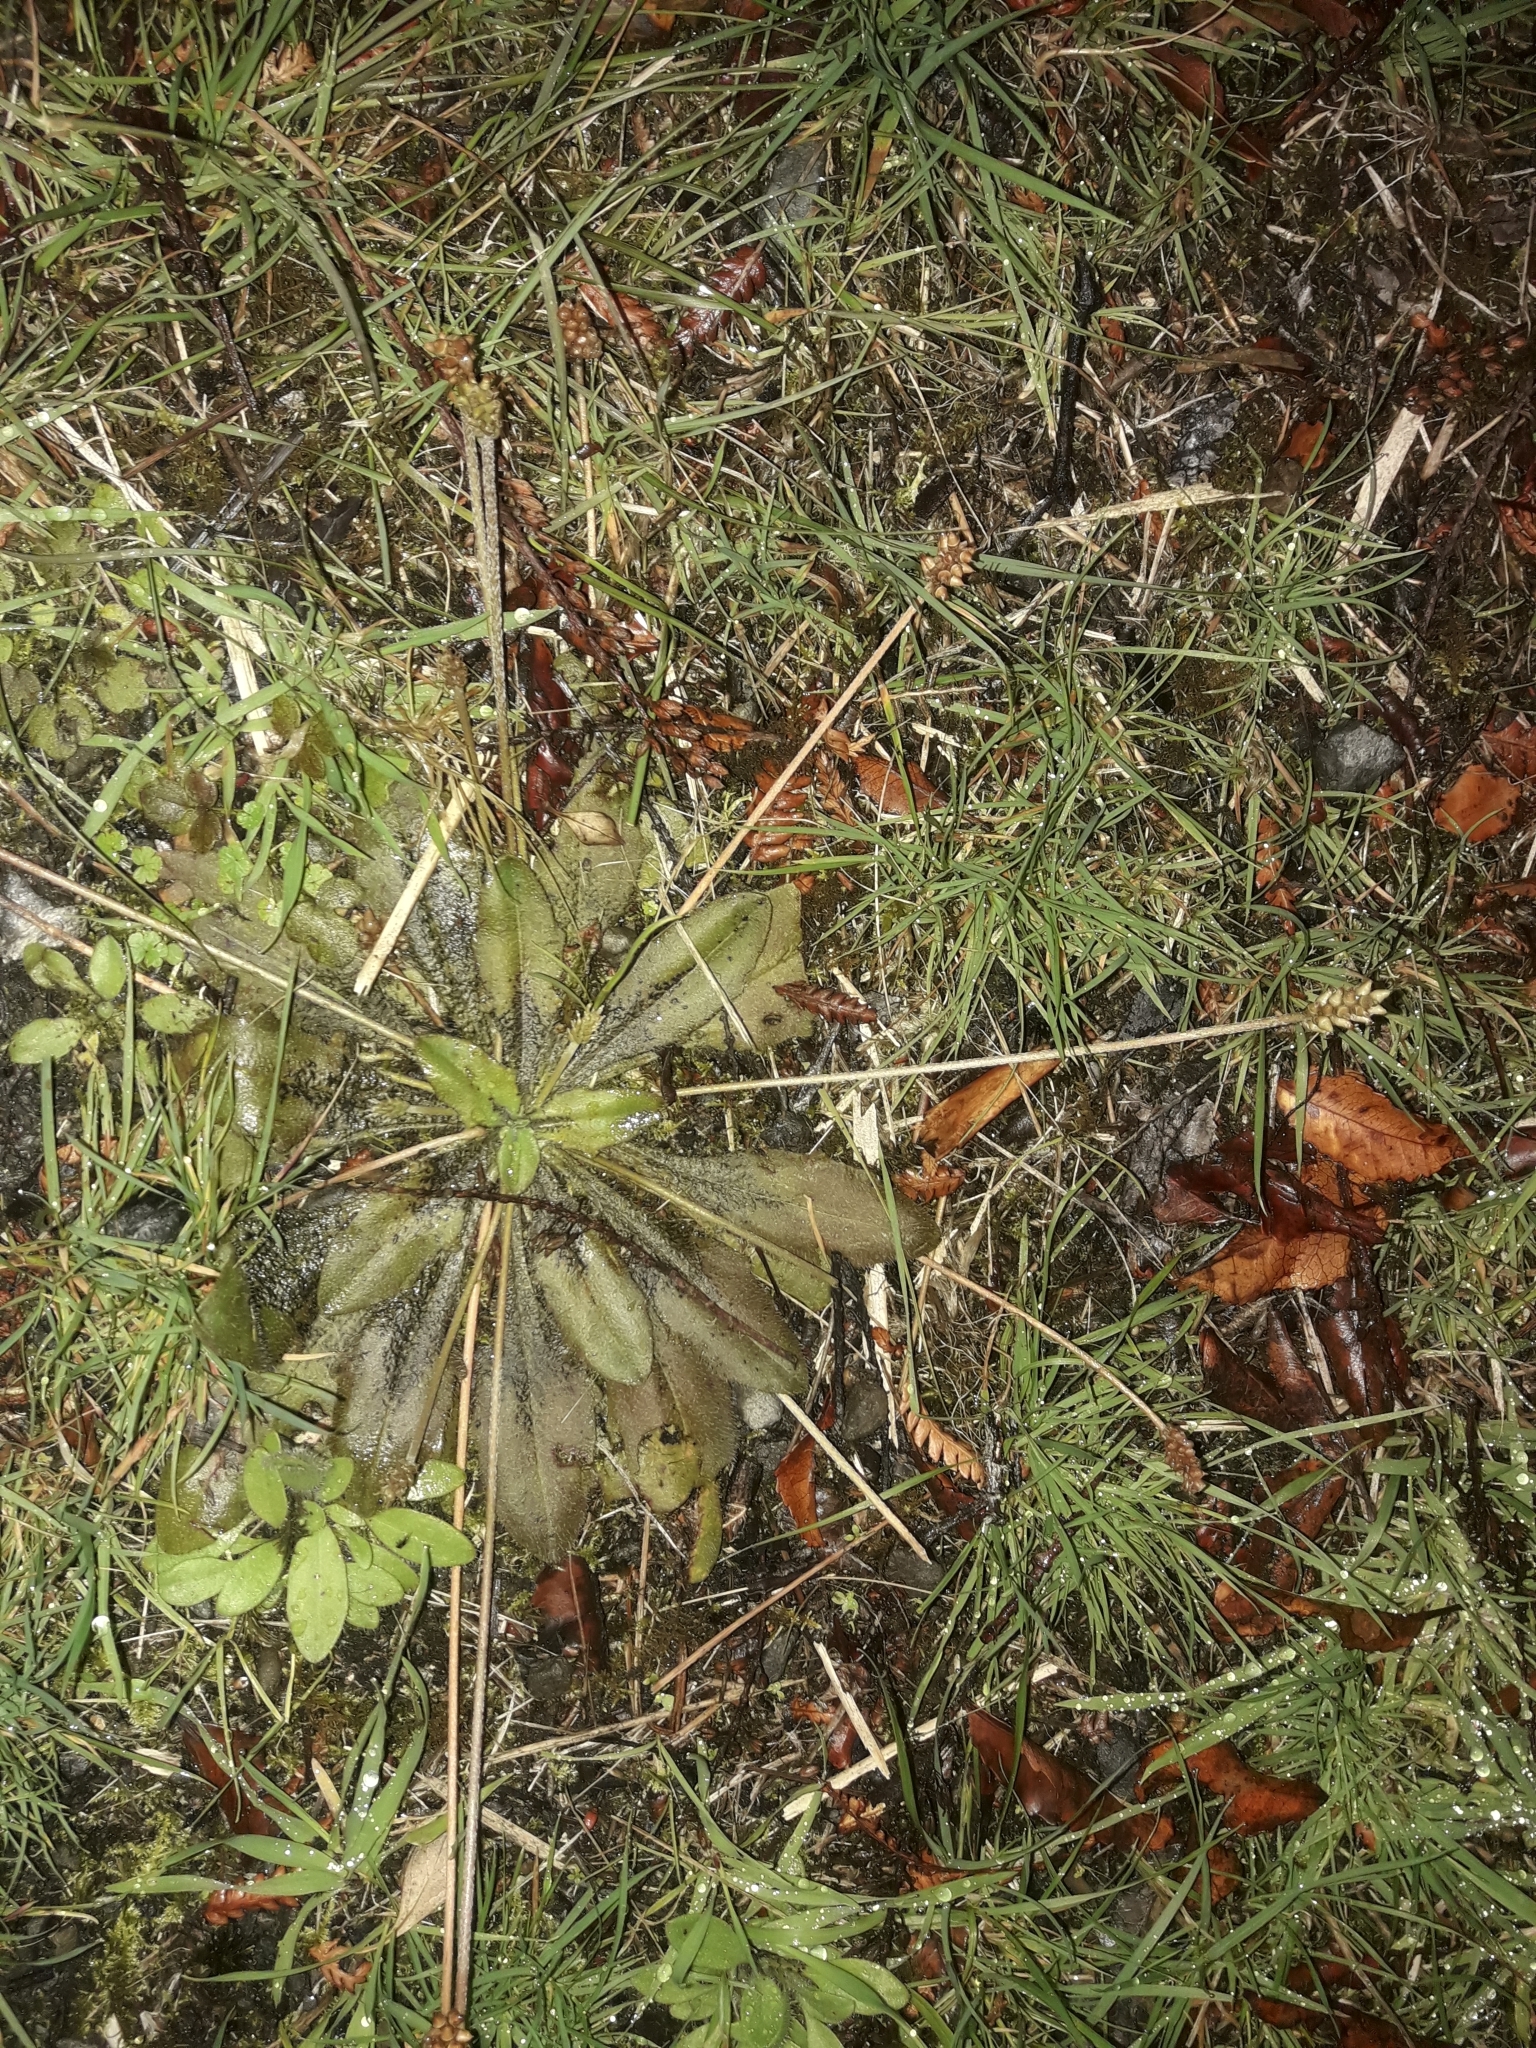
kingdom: Plantae
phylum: Tracheophyta
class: Magnoliopsida
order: Lamiales
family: Plantaginaceae
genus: Plantago
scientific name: Plantago raoulii
